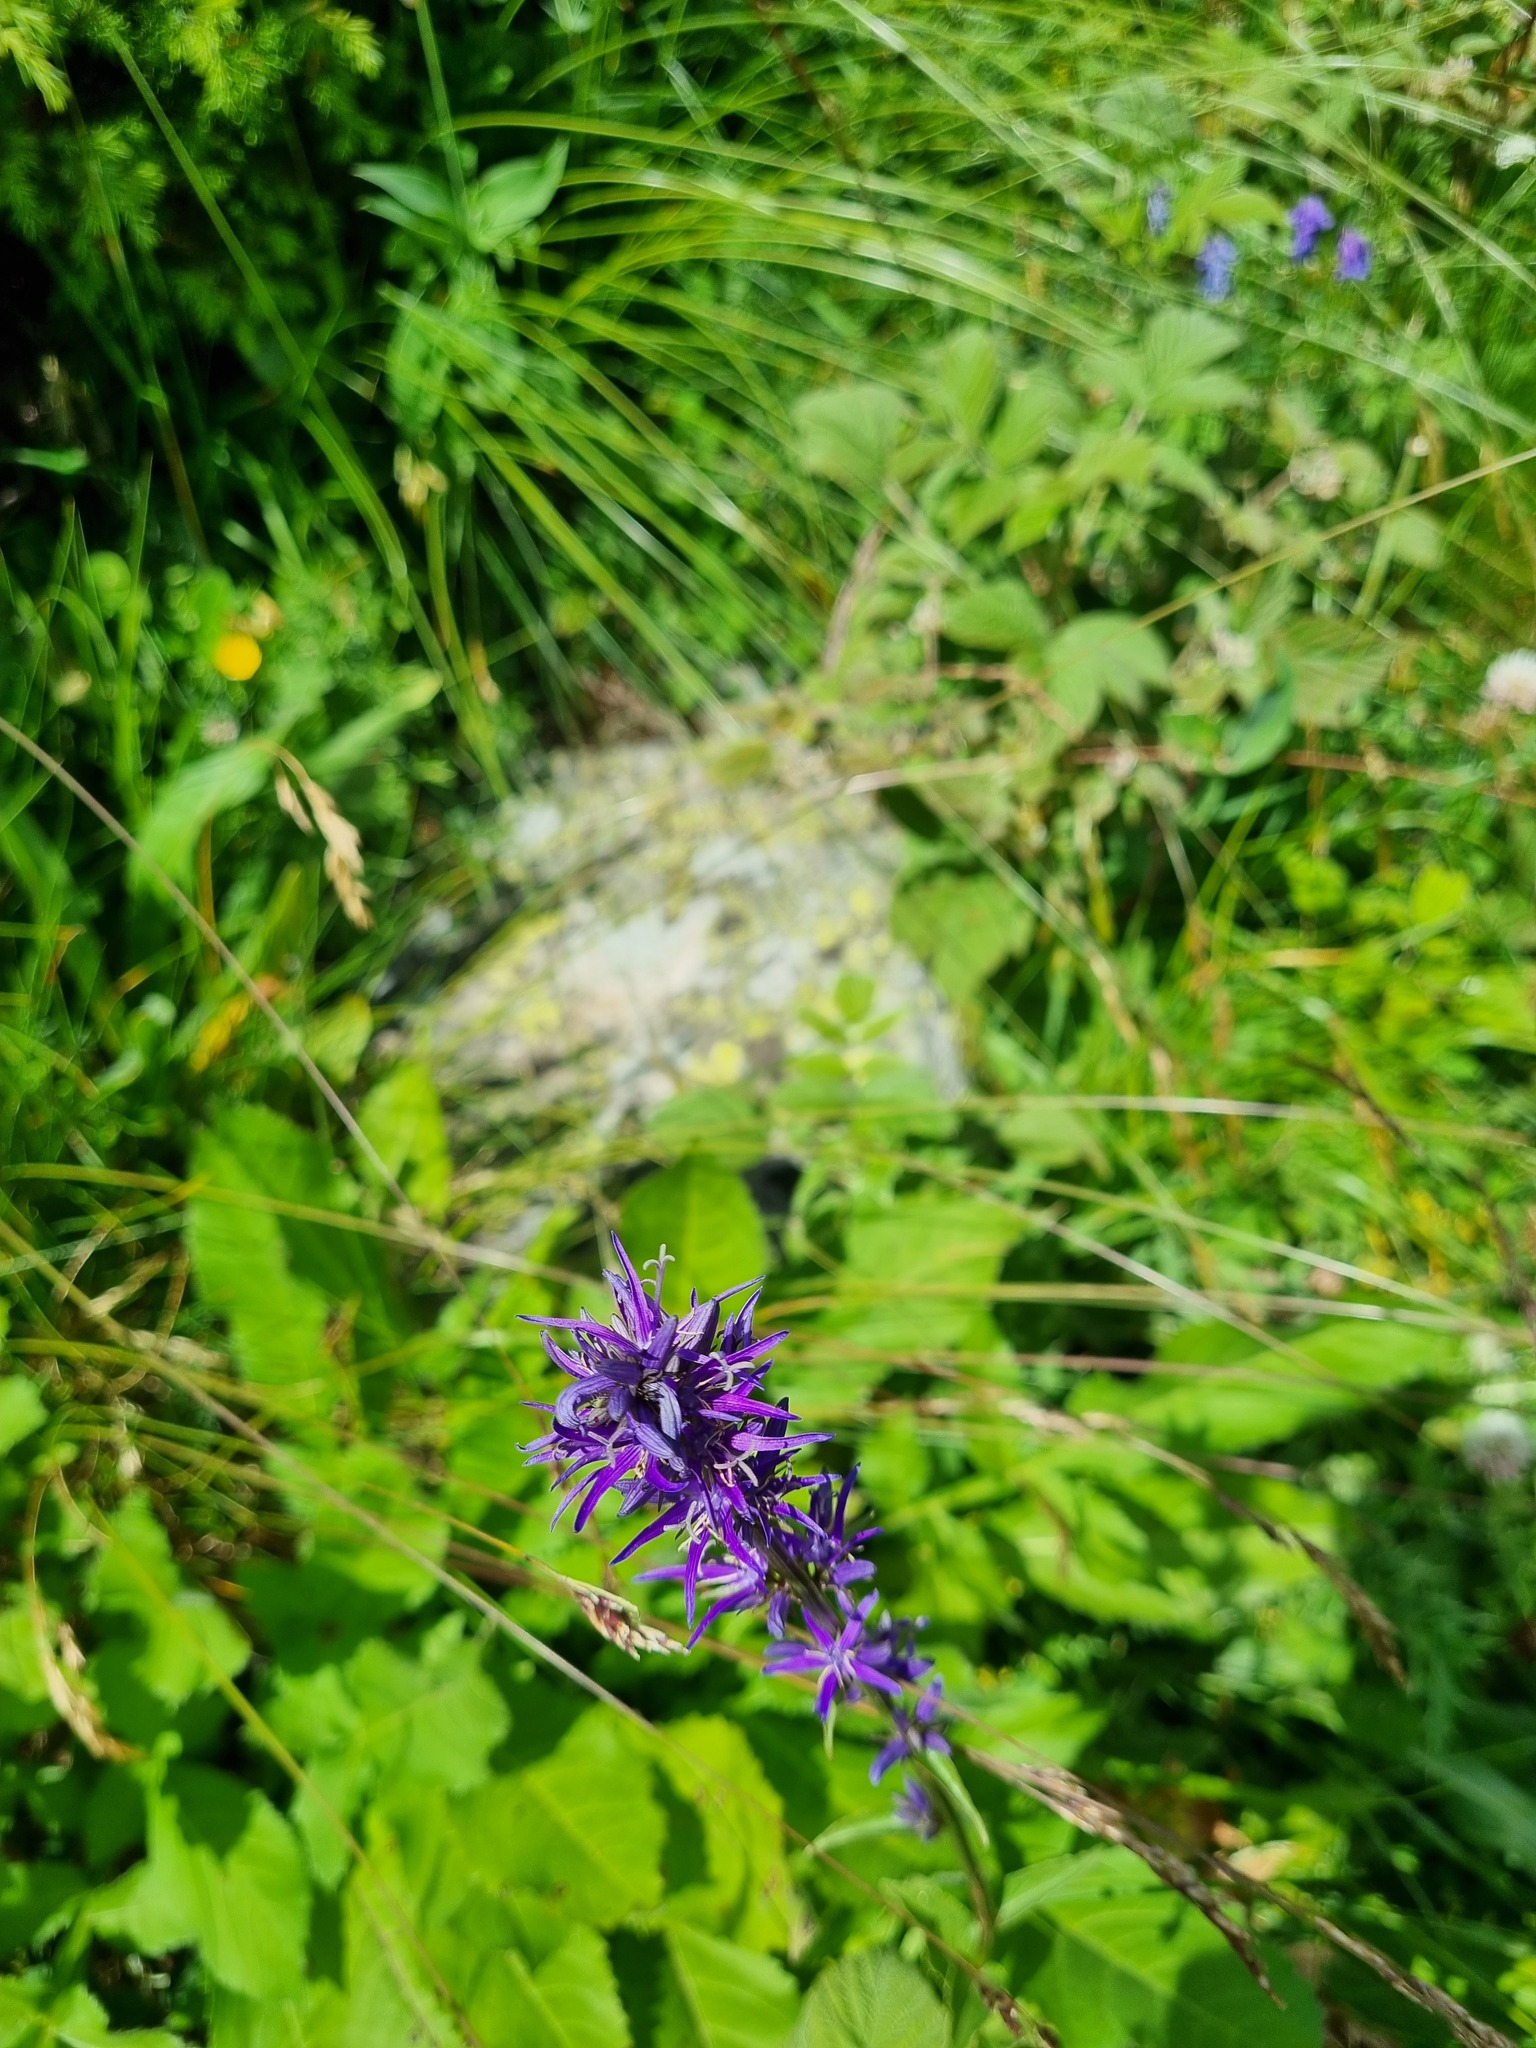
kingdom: Plantae
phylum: Tracheophyta
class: Magnoliopsida
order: Asterales
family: Campanulaceae
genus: Asyneuma
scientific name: Asyneuma campanuloides
